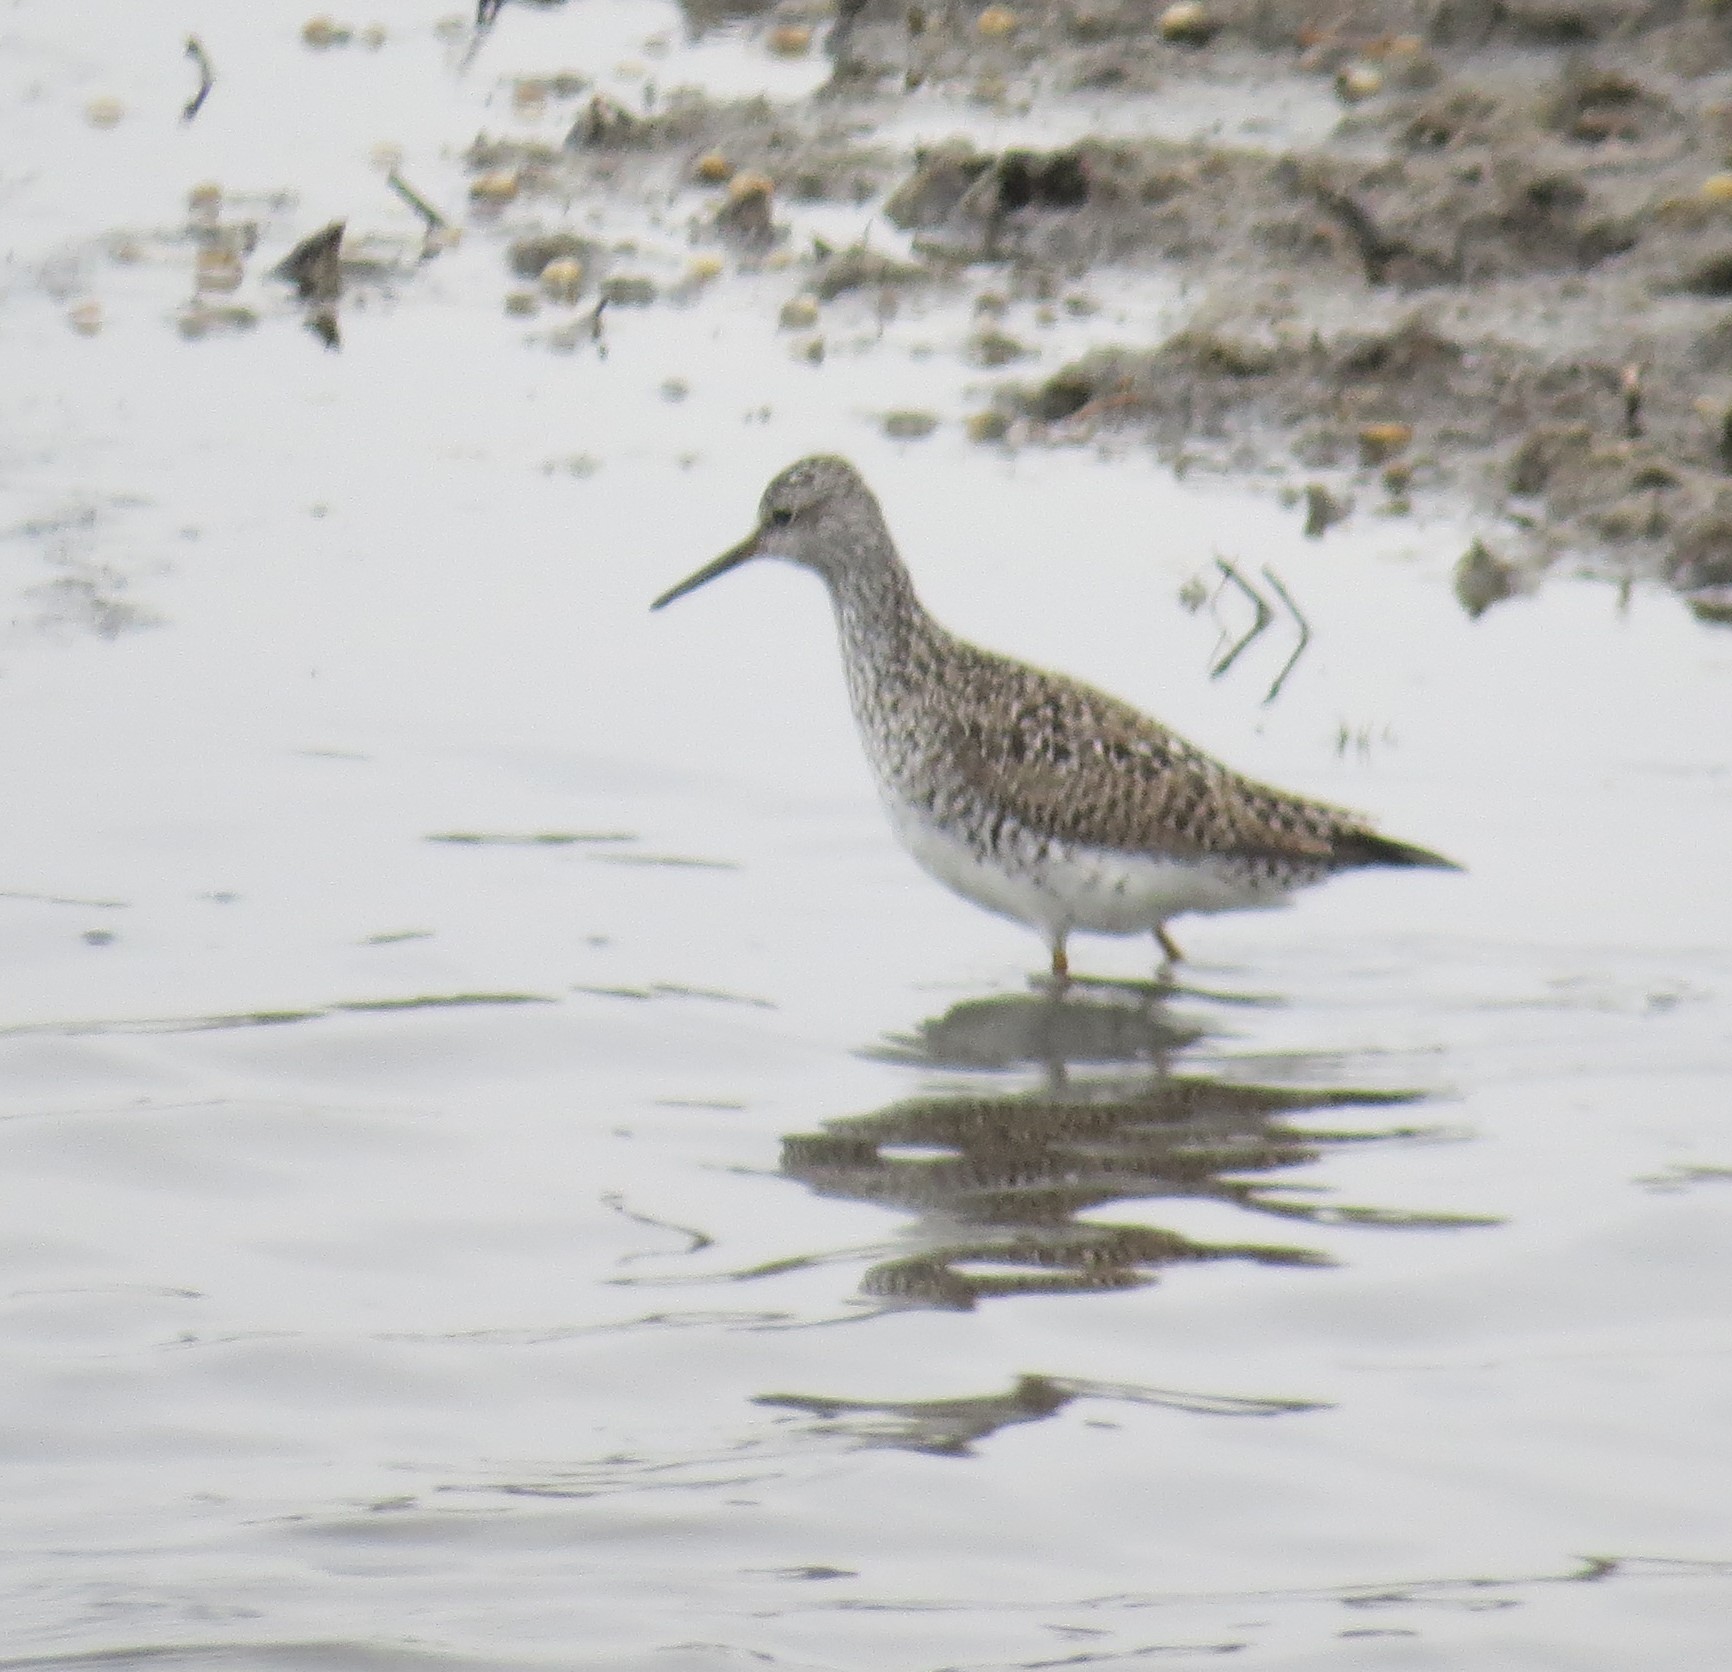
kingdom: Animalia
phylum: Chordata
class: Aves
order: Charadriiformes
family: Scolopacidae
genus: Tringa
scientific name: Tringa flavipes
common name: Lesser yellowlegs
